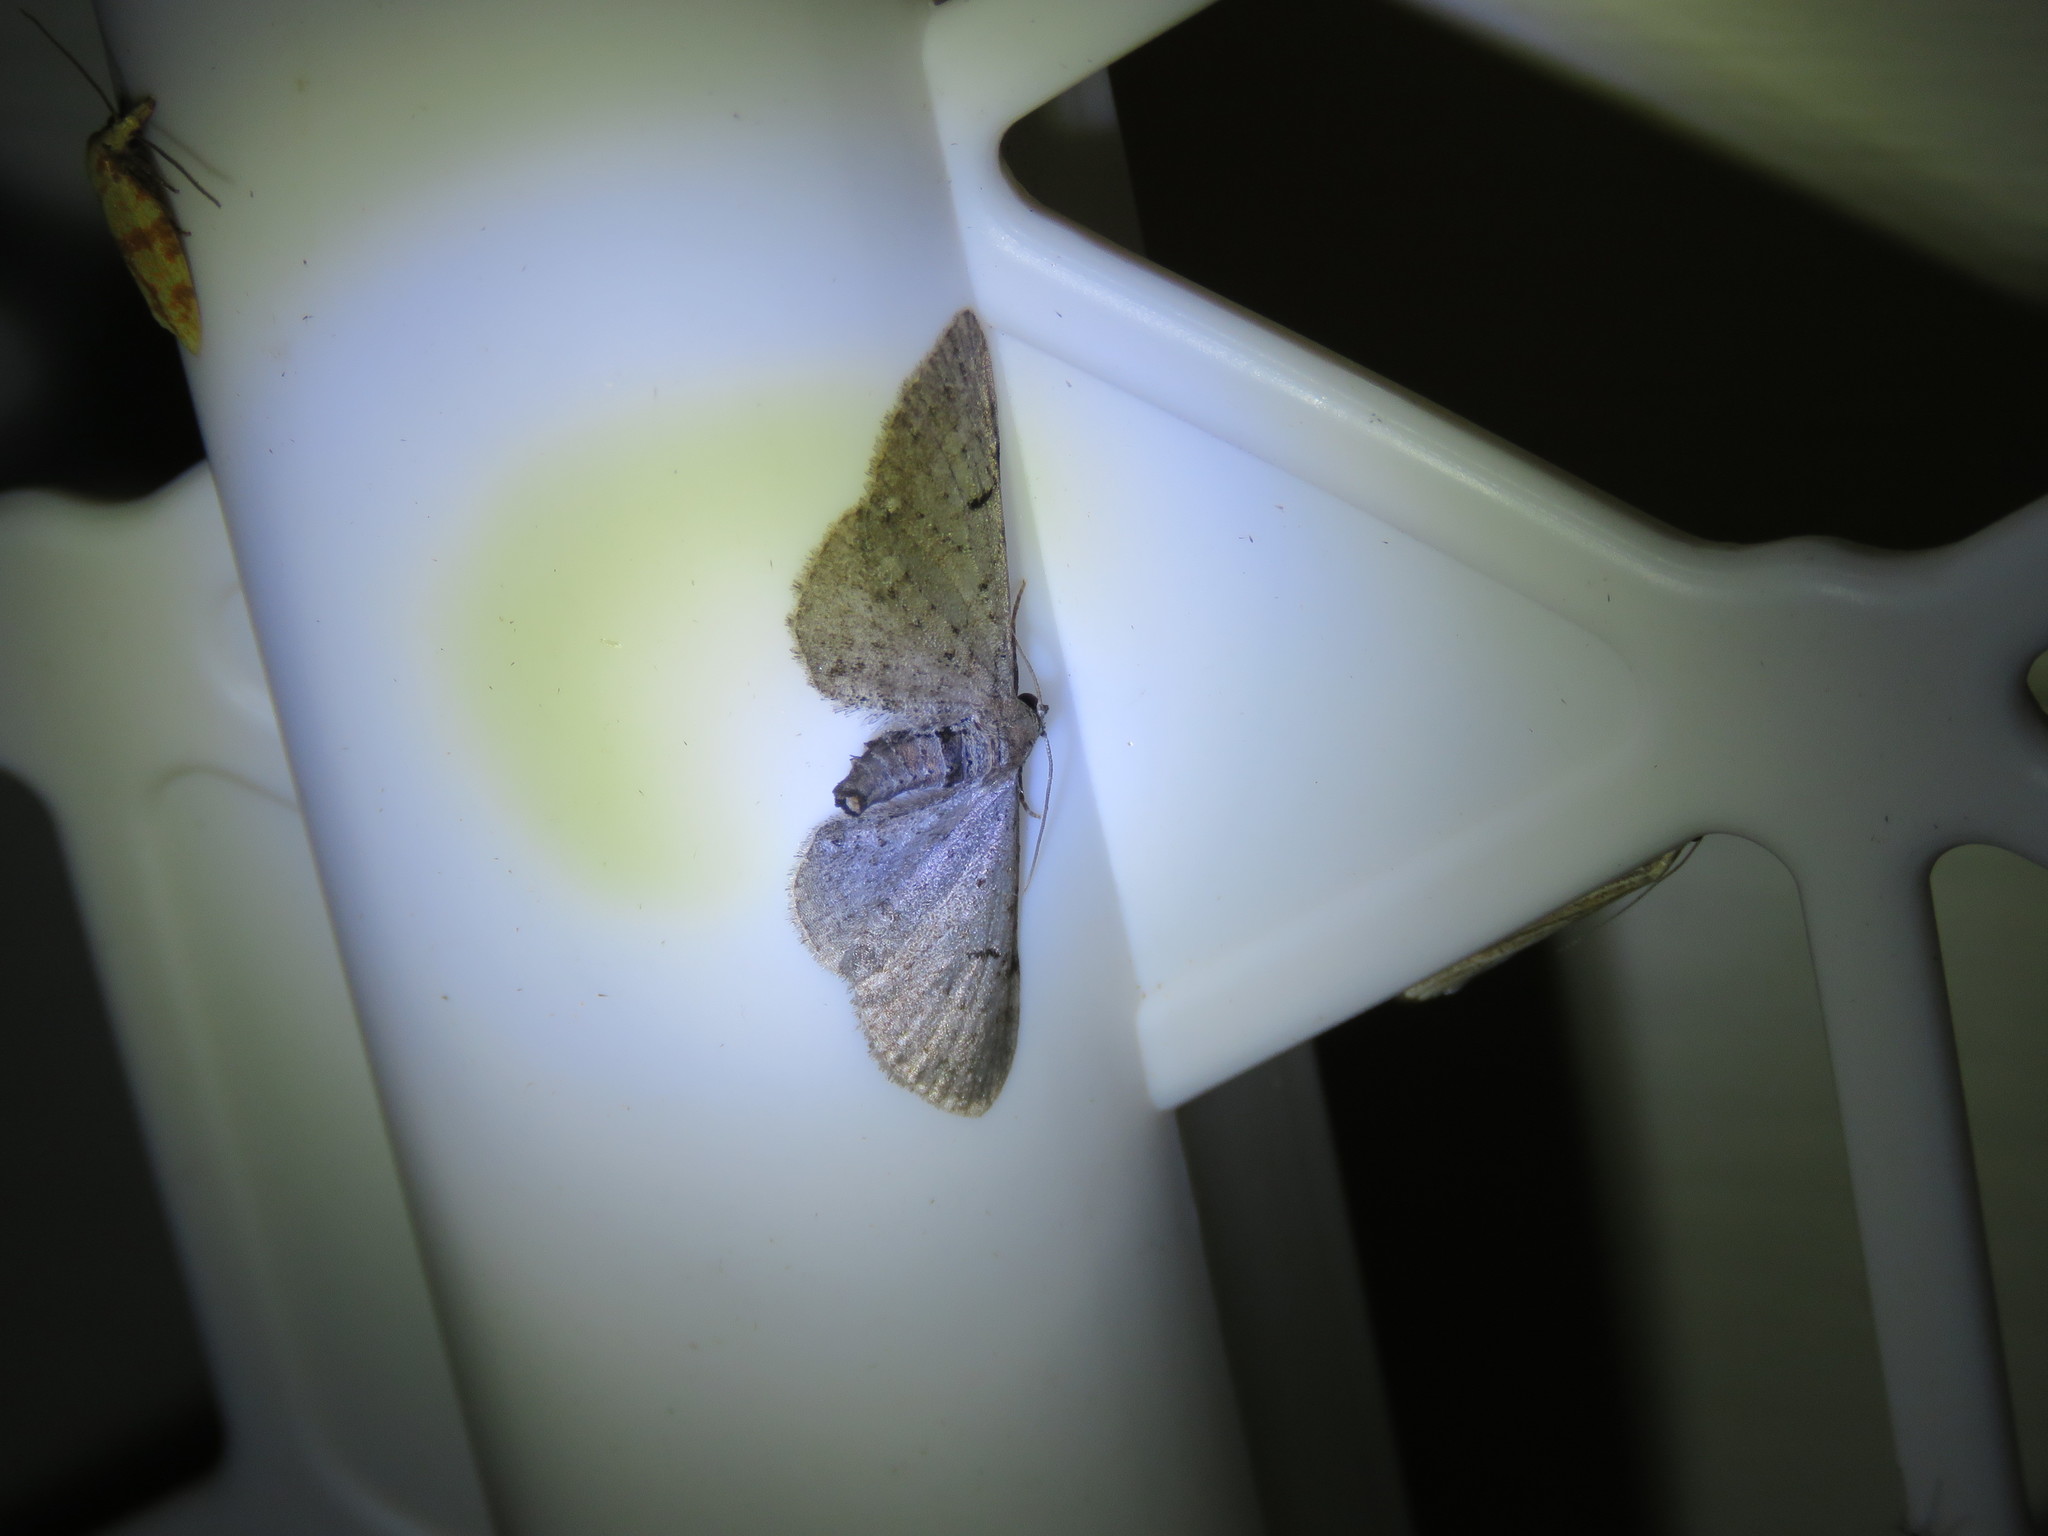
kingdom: Animalia
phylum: Arthropoda
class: Insecta
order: Lepidoptera
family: Geometridae
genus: Eupithecia
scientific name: Eupithecia absinthiata
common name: Wormwood pug
